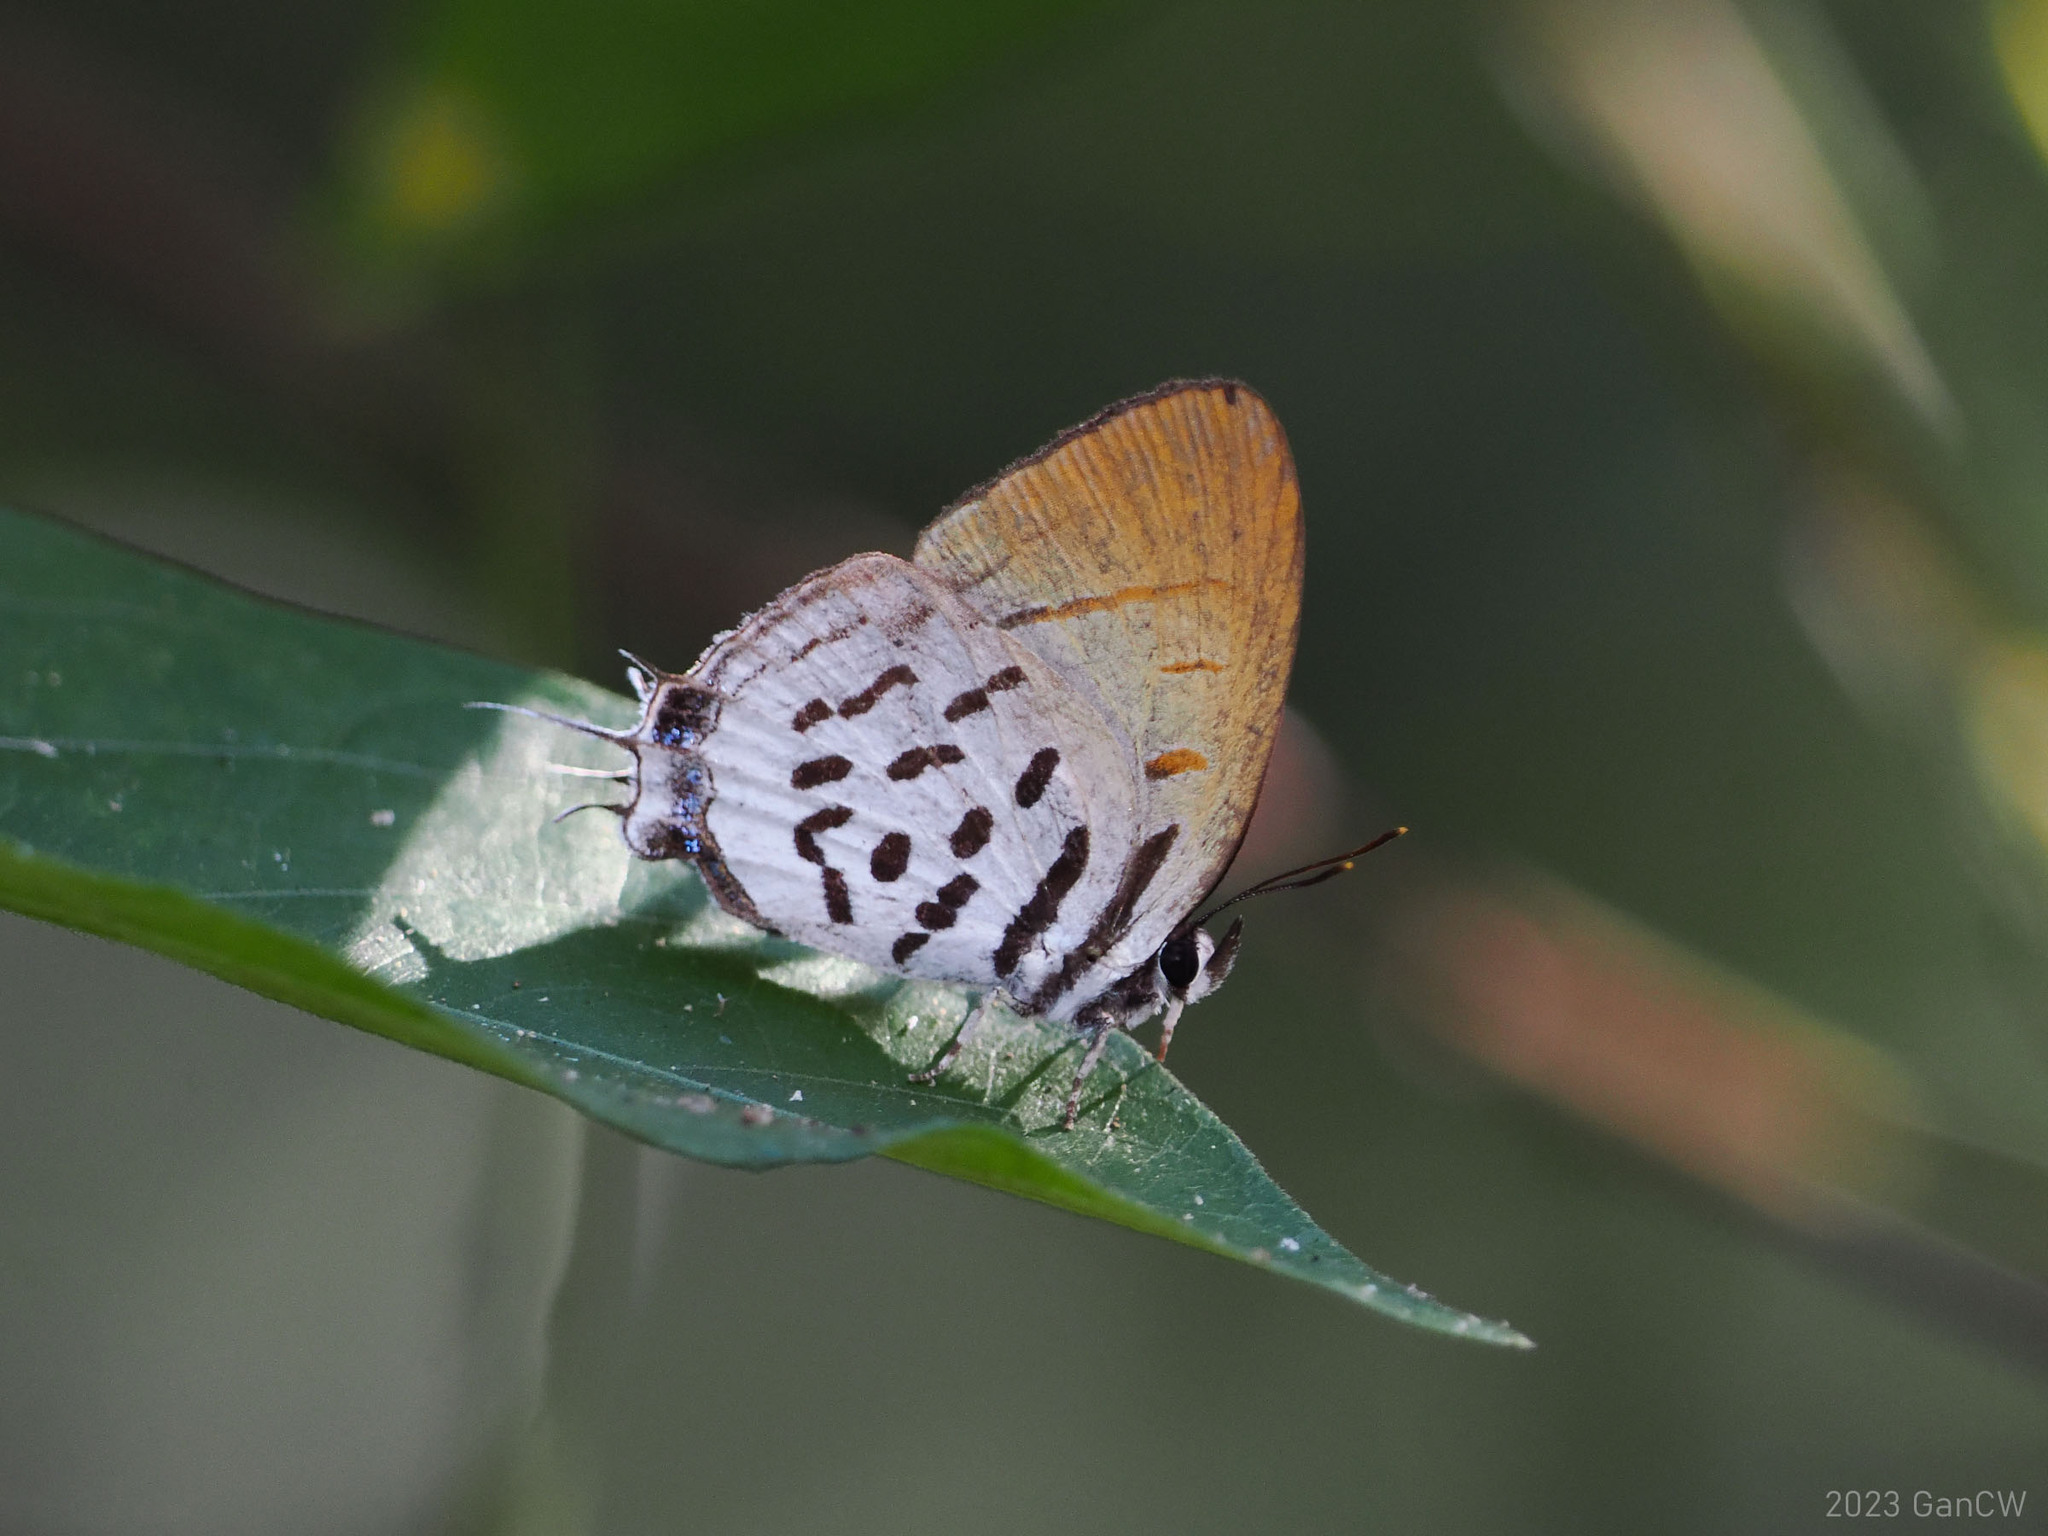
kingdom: Animalia
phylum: Arthropoda
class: Insecta
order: Lepidoptera
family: Lycaenidae
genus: Drupadia
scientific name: Drupadia ravindra
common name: Common posy
